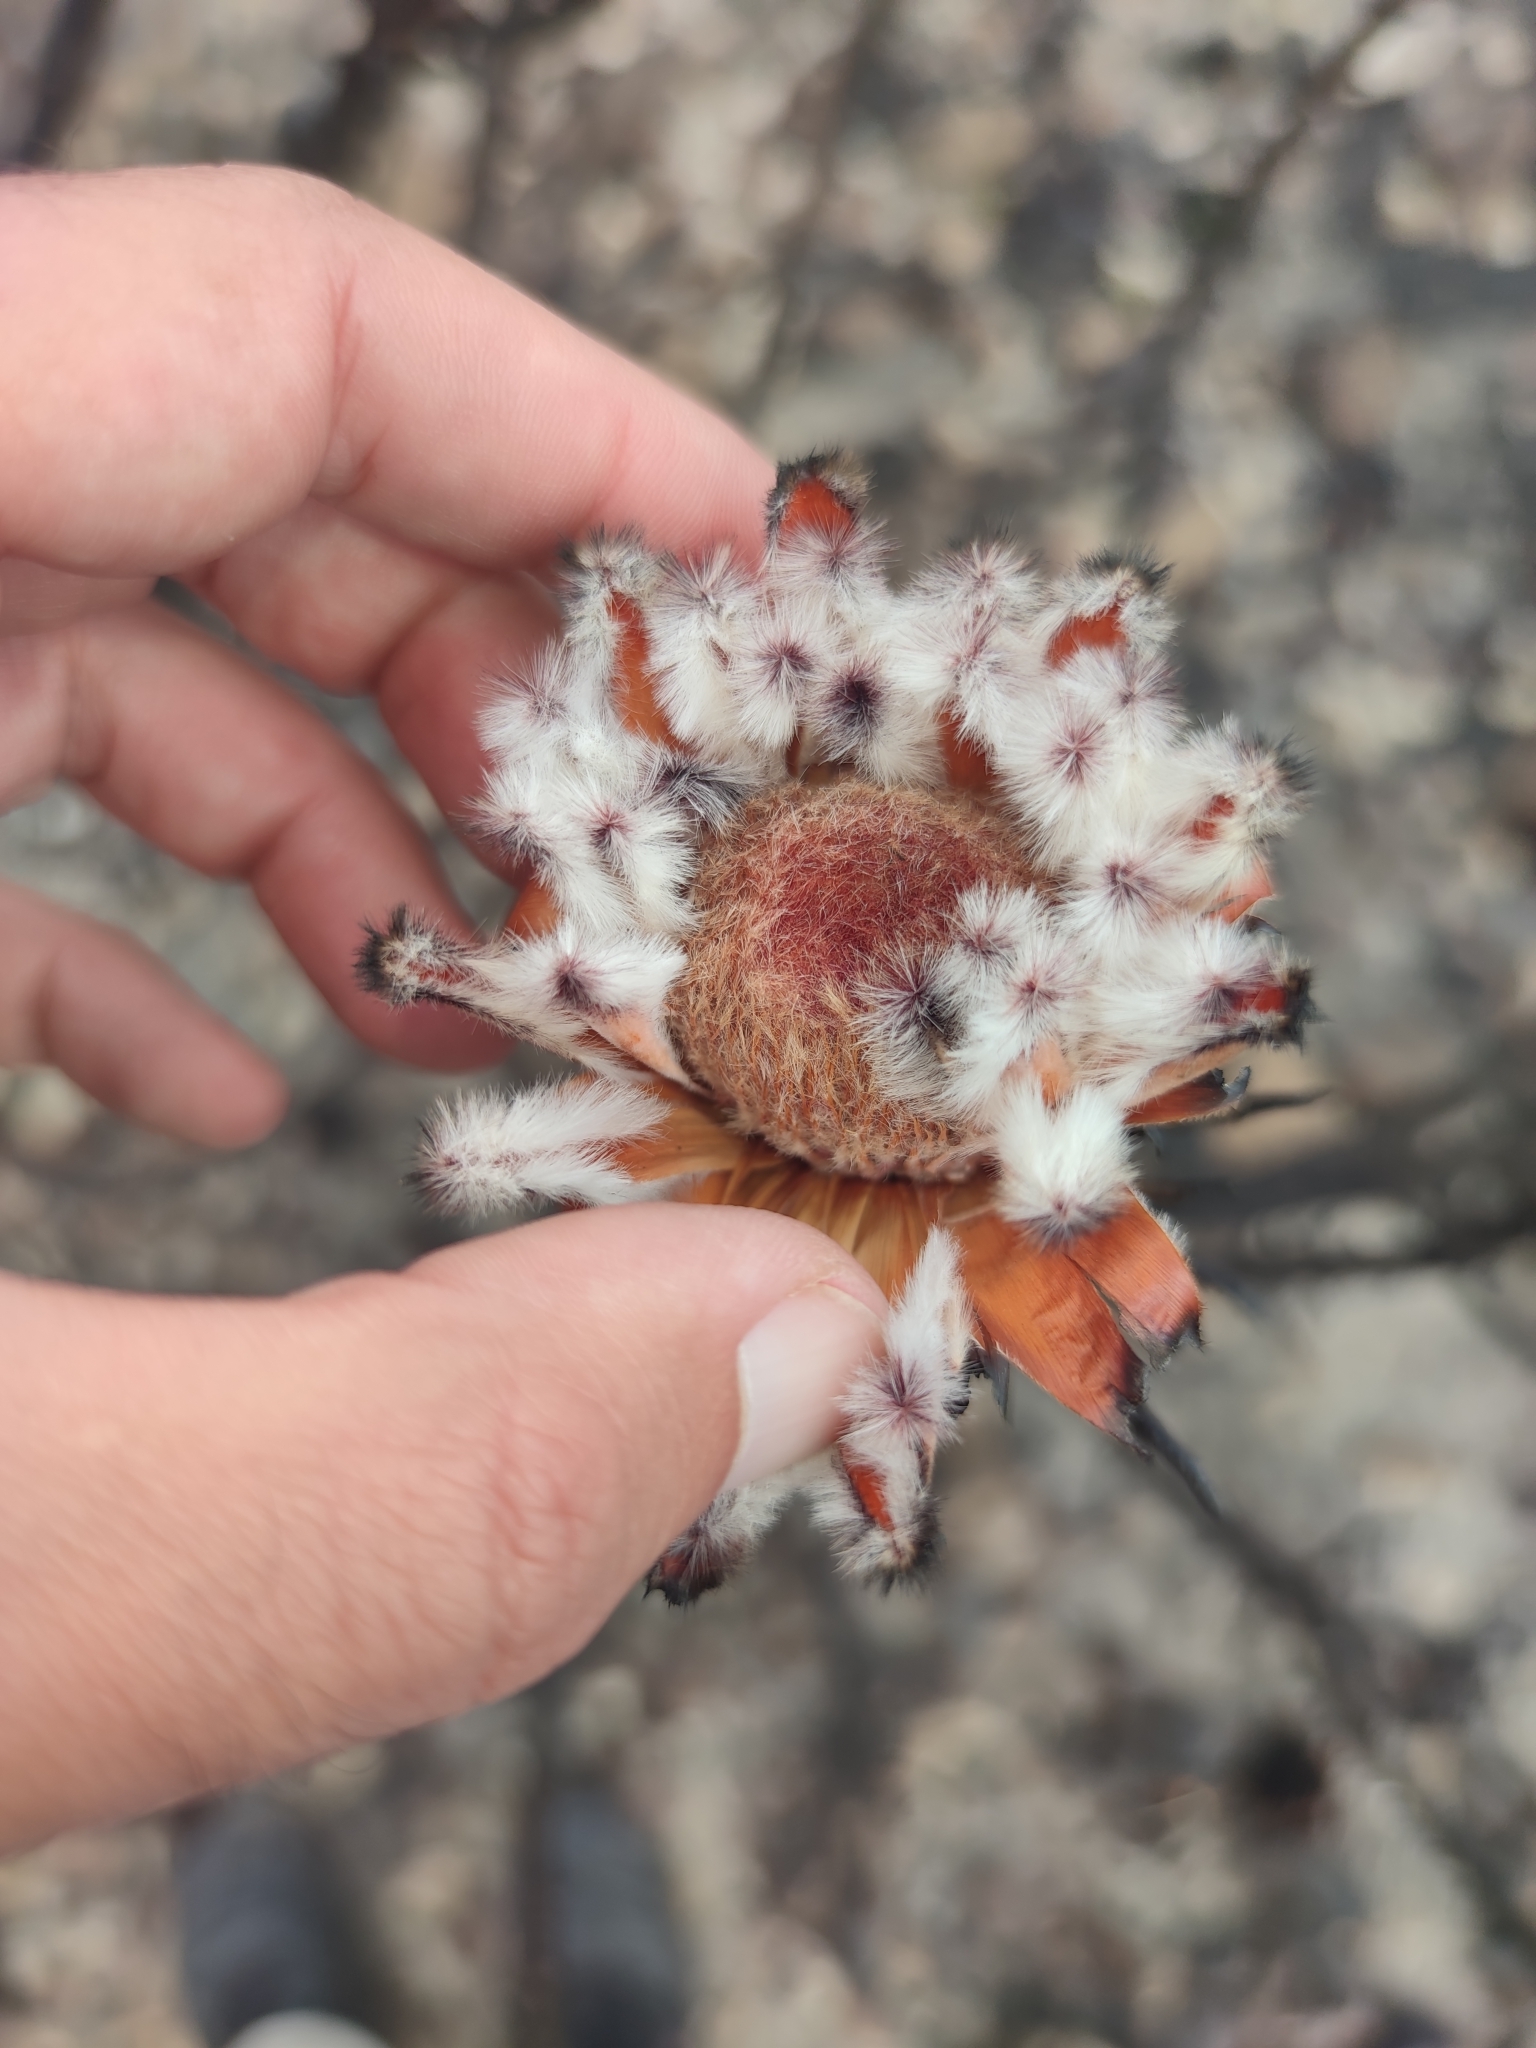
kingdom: Plantae
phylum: Tracheophyta
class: Magnoliopsida
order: Proteales
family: Proteaceae
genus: Protea
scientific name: Protea laurifolia
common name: Grey-leaf sugarbsh
